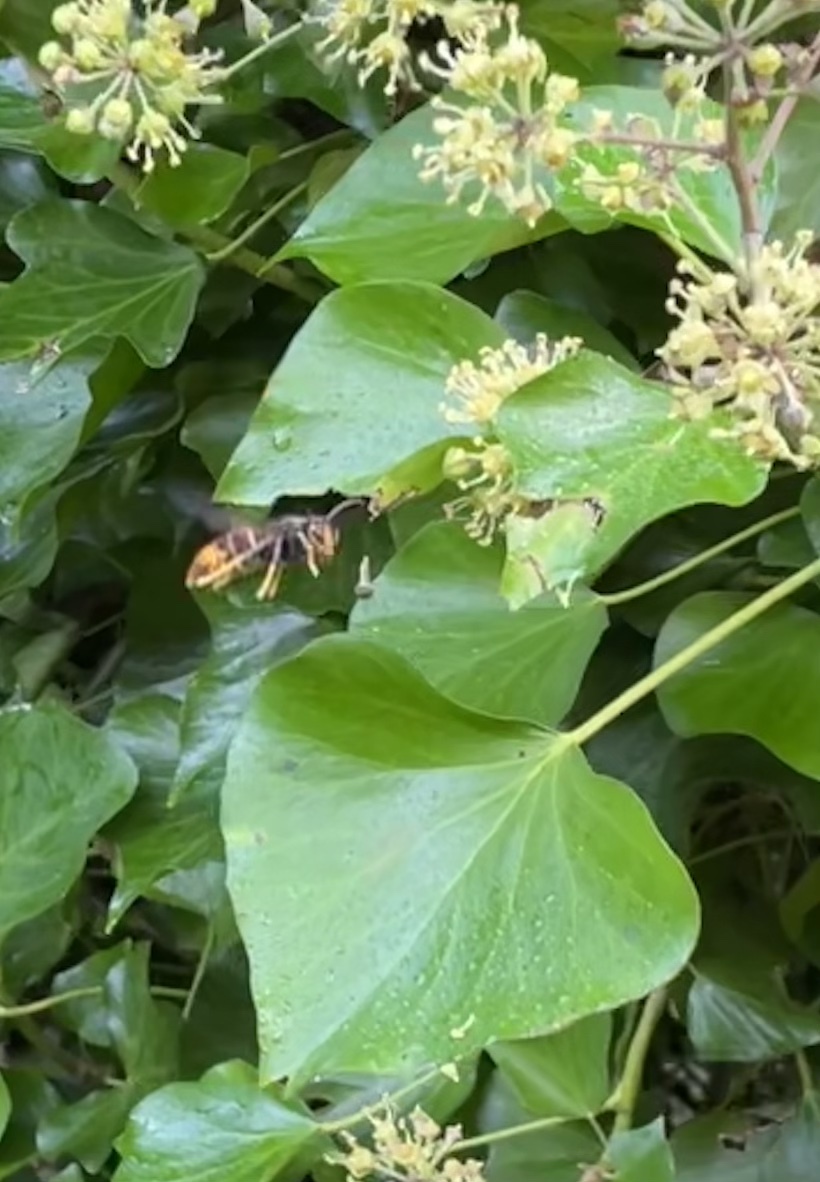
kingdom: Animalia
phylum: Arthropoda
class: Insecta
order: Hymenoptera
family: Vespidae
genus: Vespa
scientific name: Vespa velutina
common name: Asian hornet
